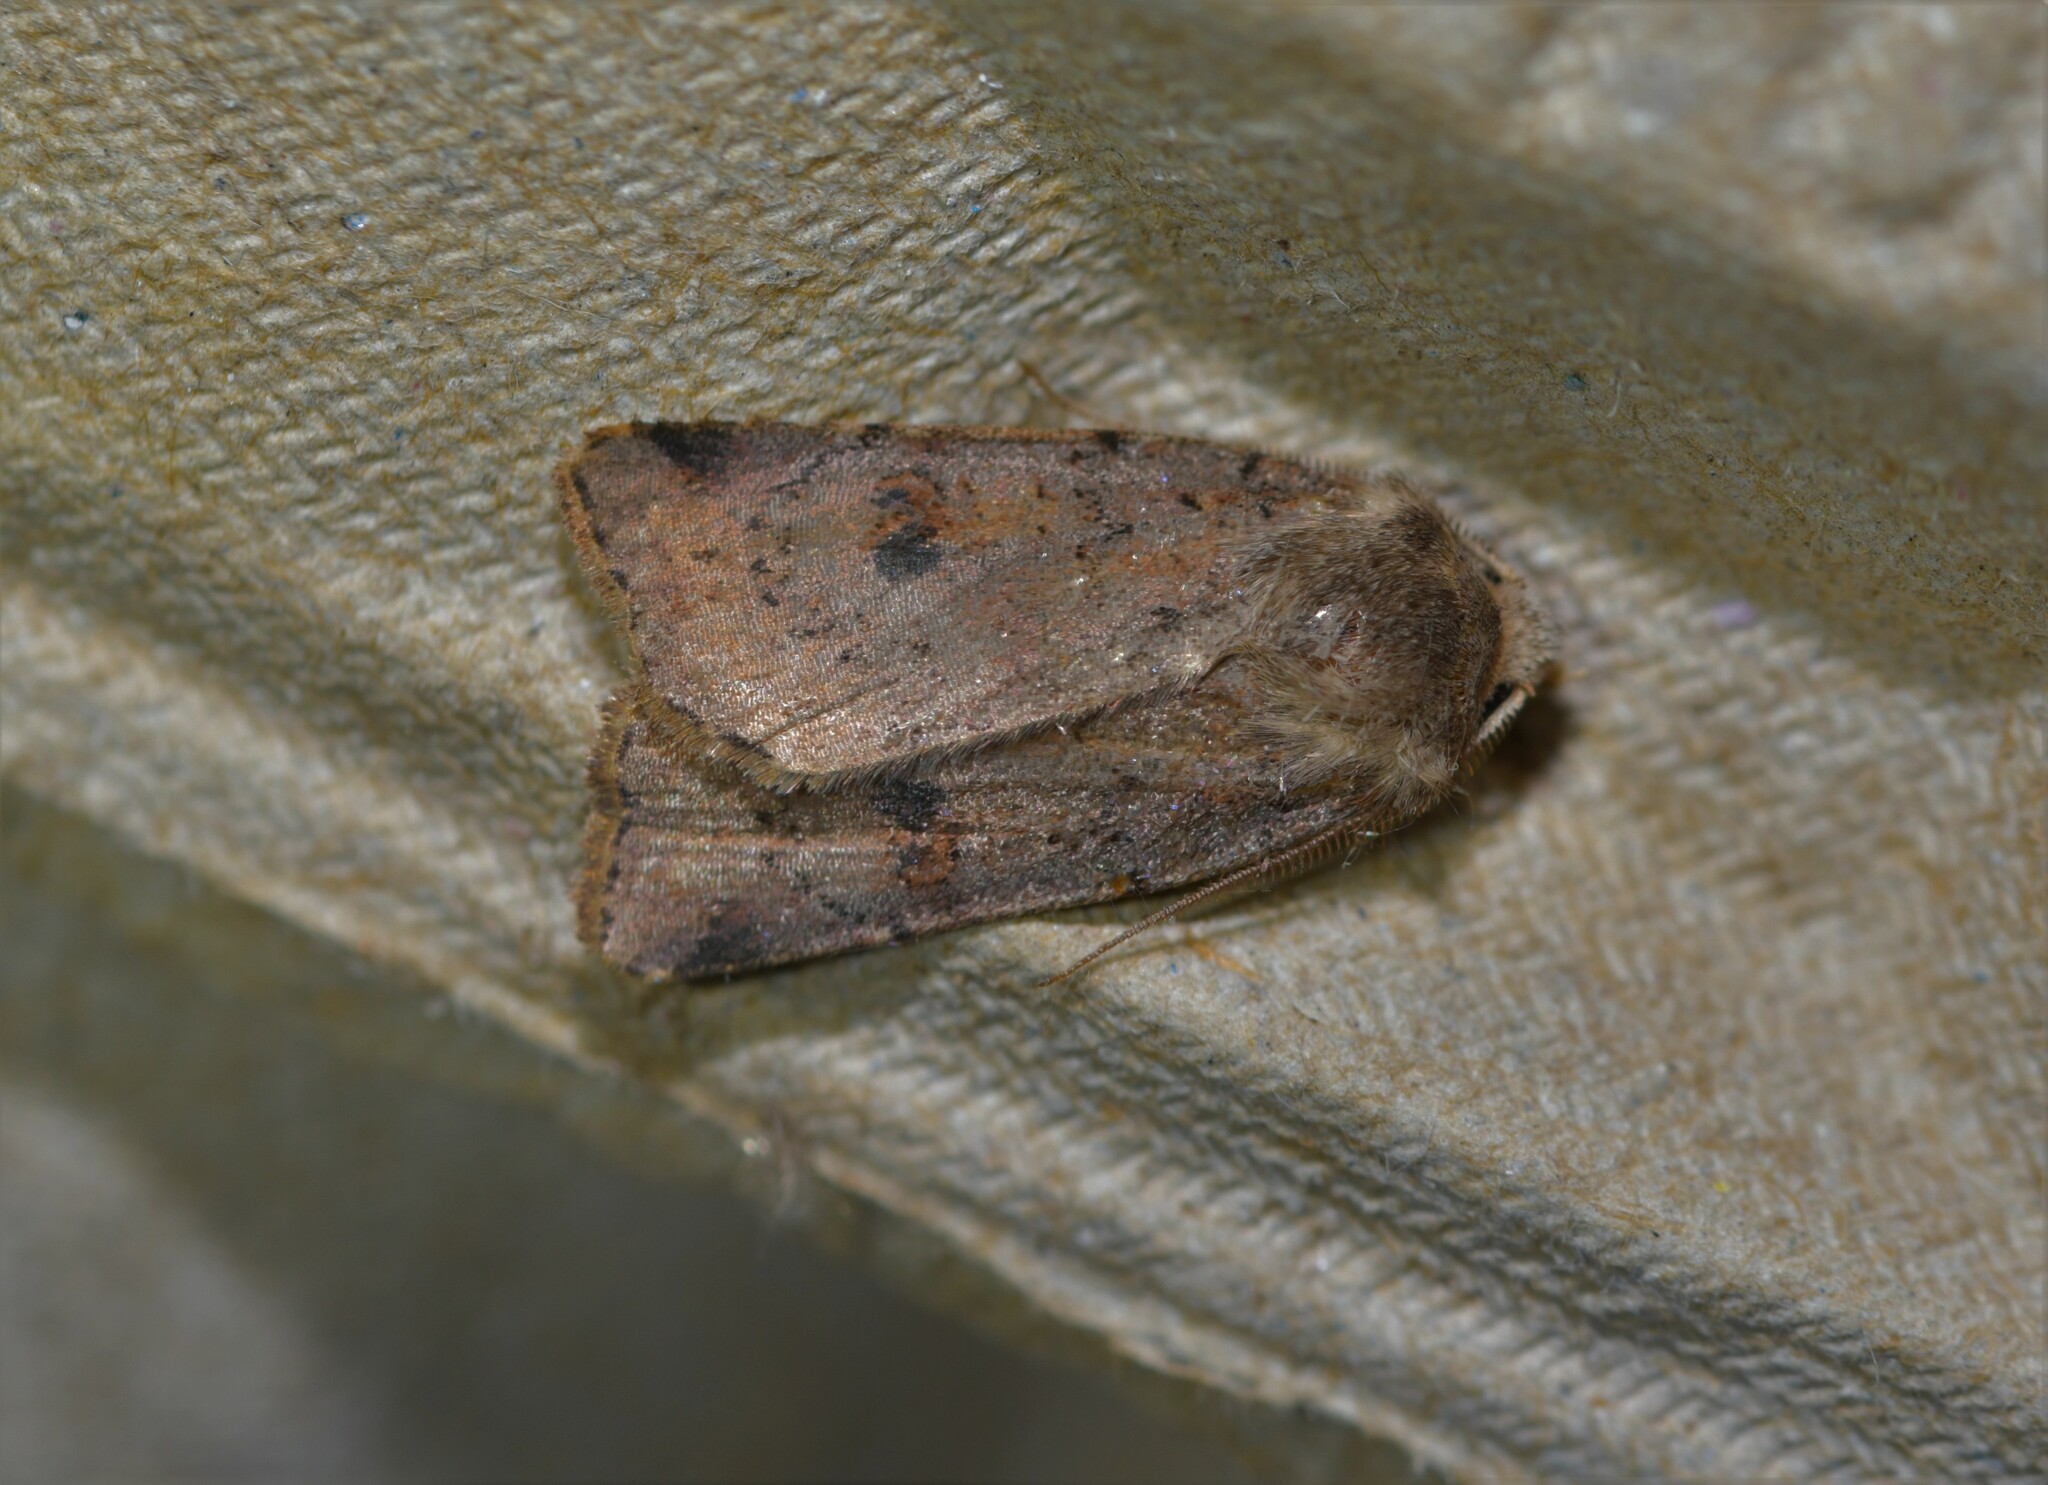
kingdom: Animalia
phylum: Arthropoda
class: Insecta
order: Lepidoptera
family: Noctuidae
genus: Cerastis
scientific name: Cerastis faceta
